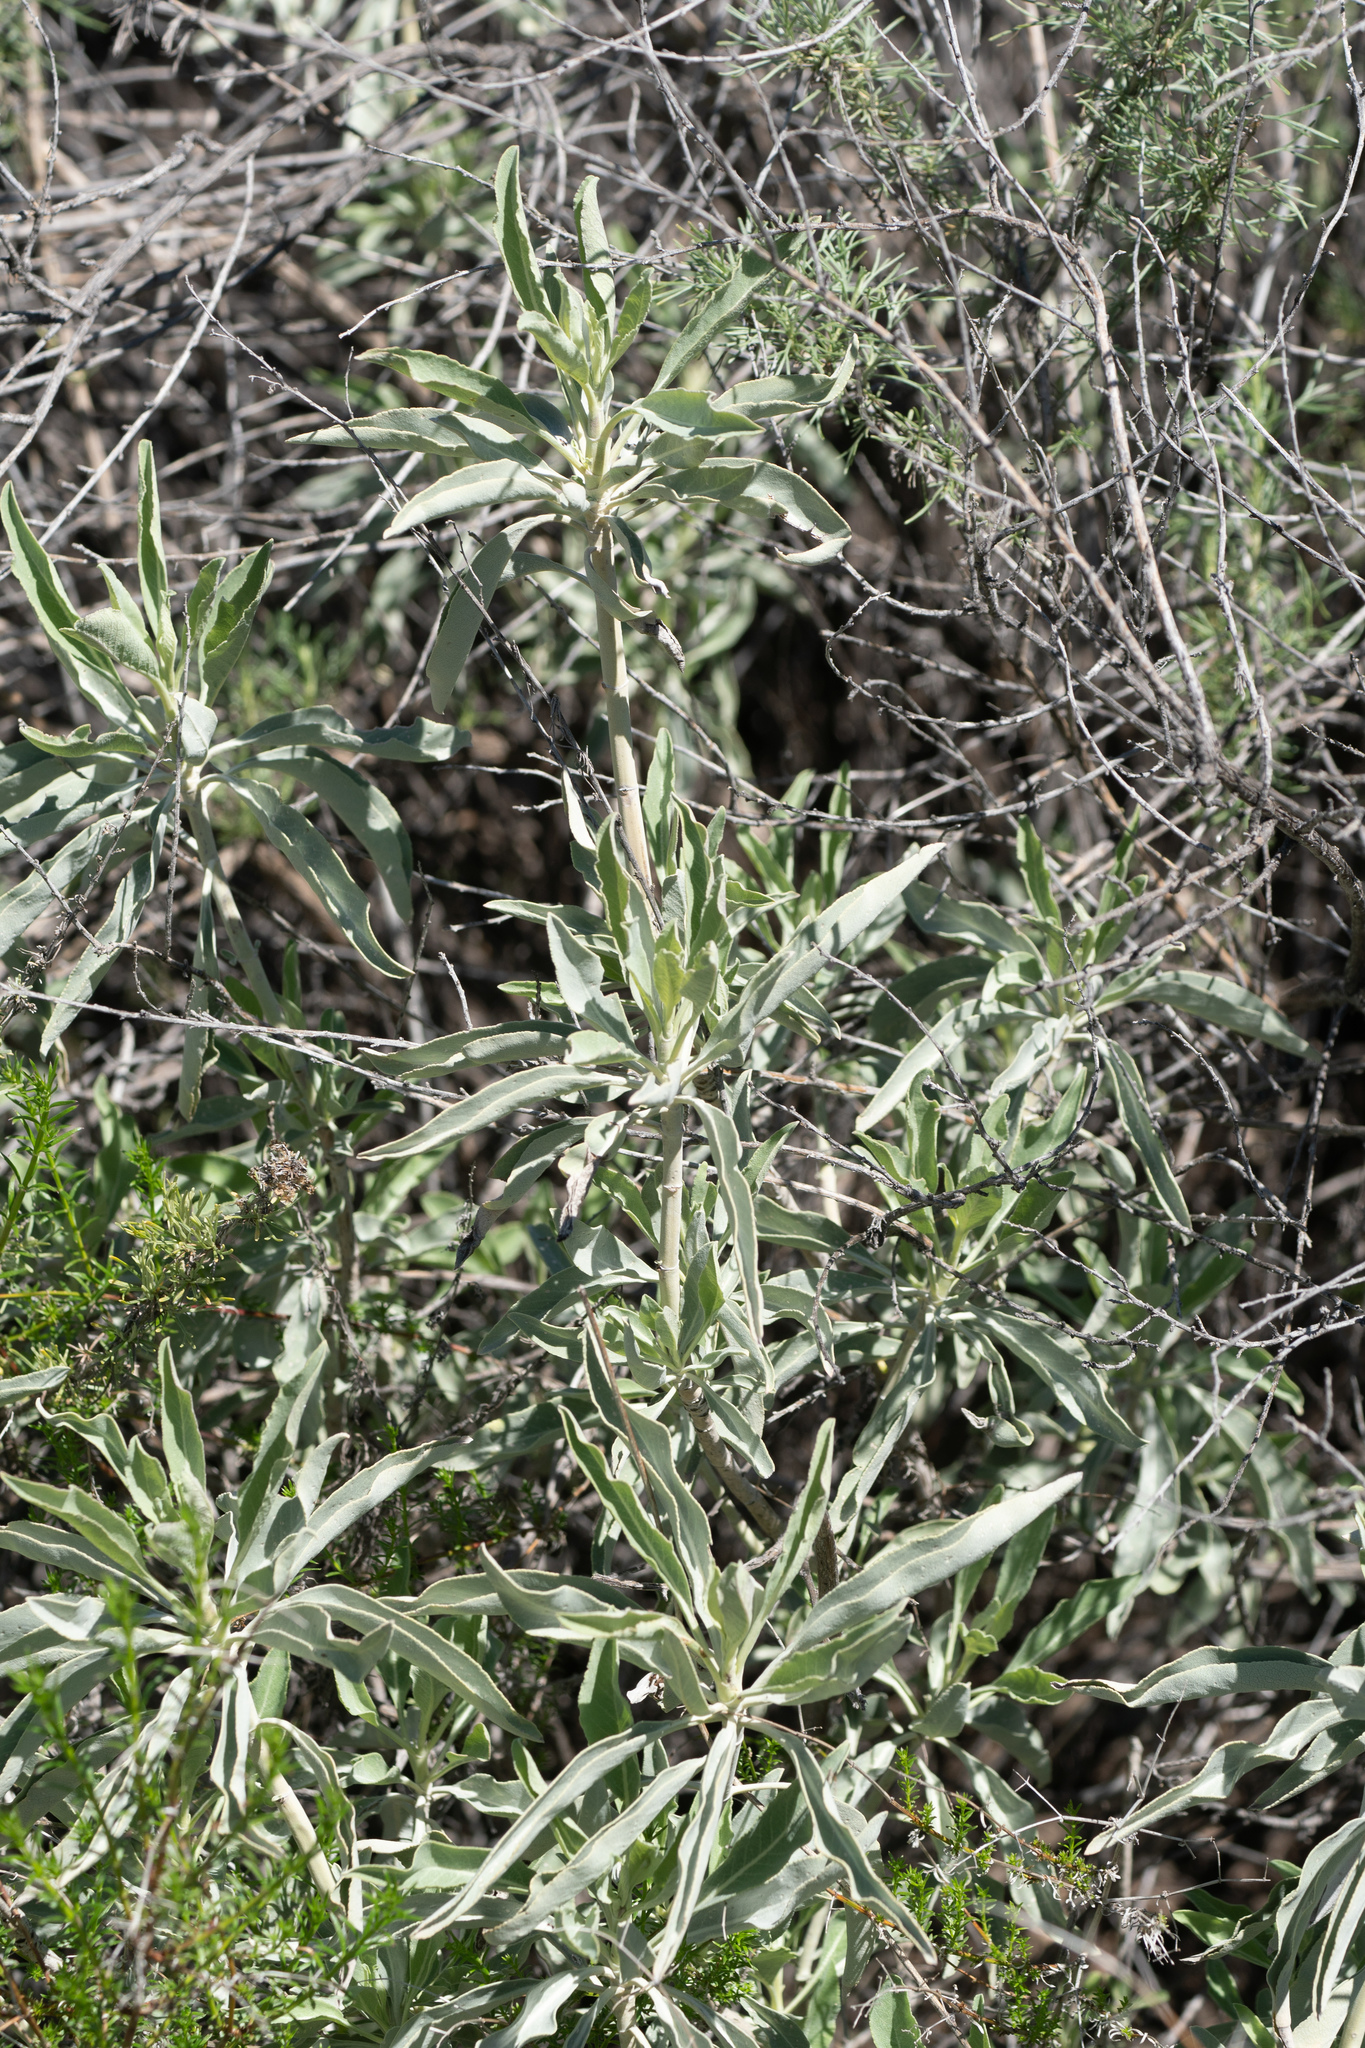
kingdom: Plantae
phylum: Tracheophyta
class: Magnoliopsida
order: Lamiales
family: Lamiaceae
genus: Salvia
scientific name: Salvia apiana
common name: White sage
